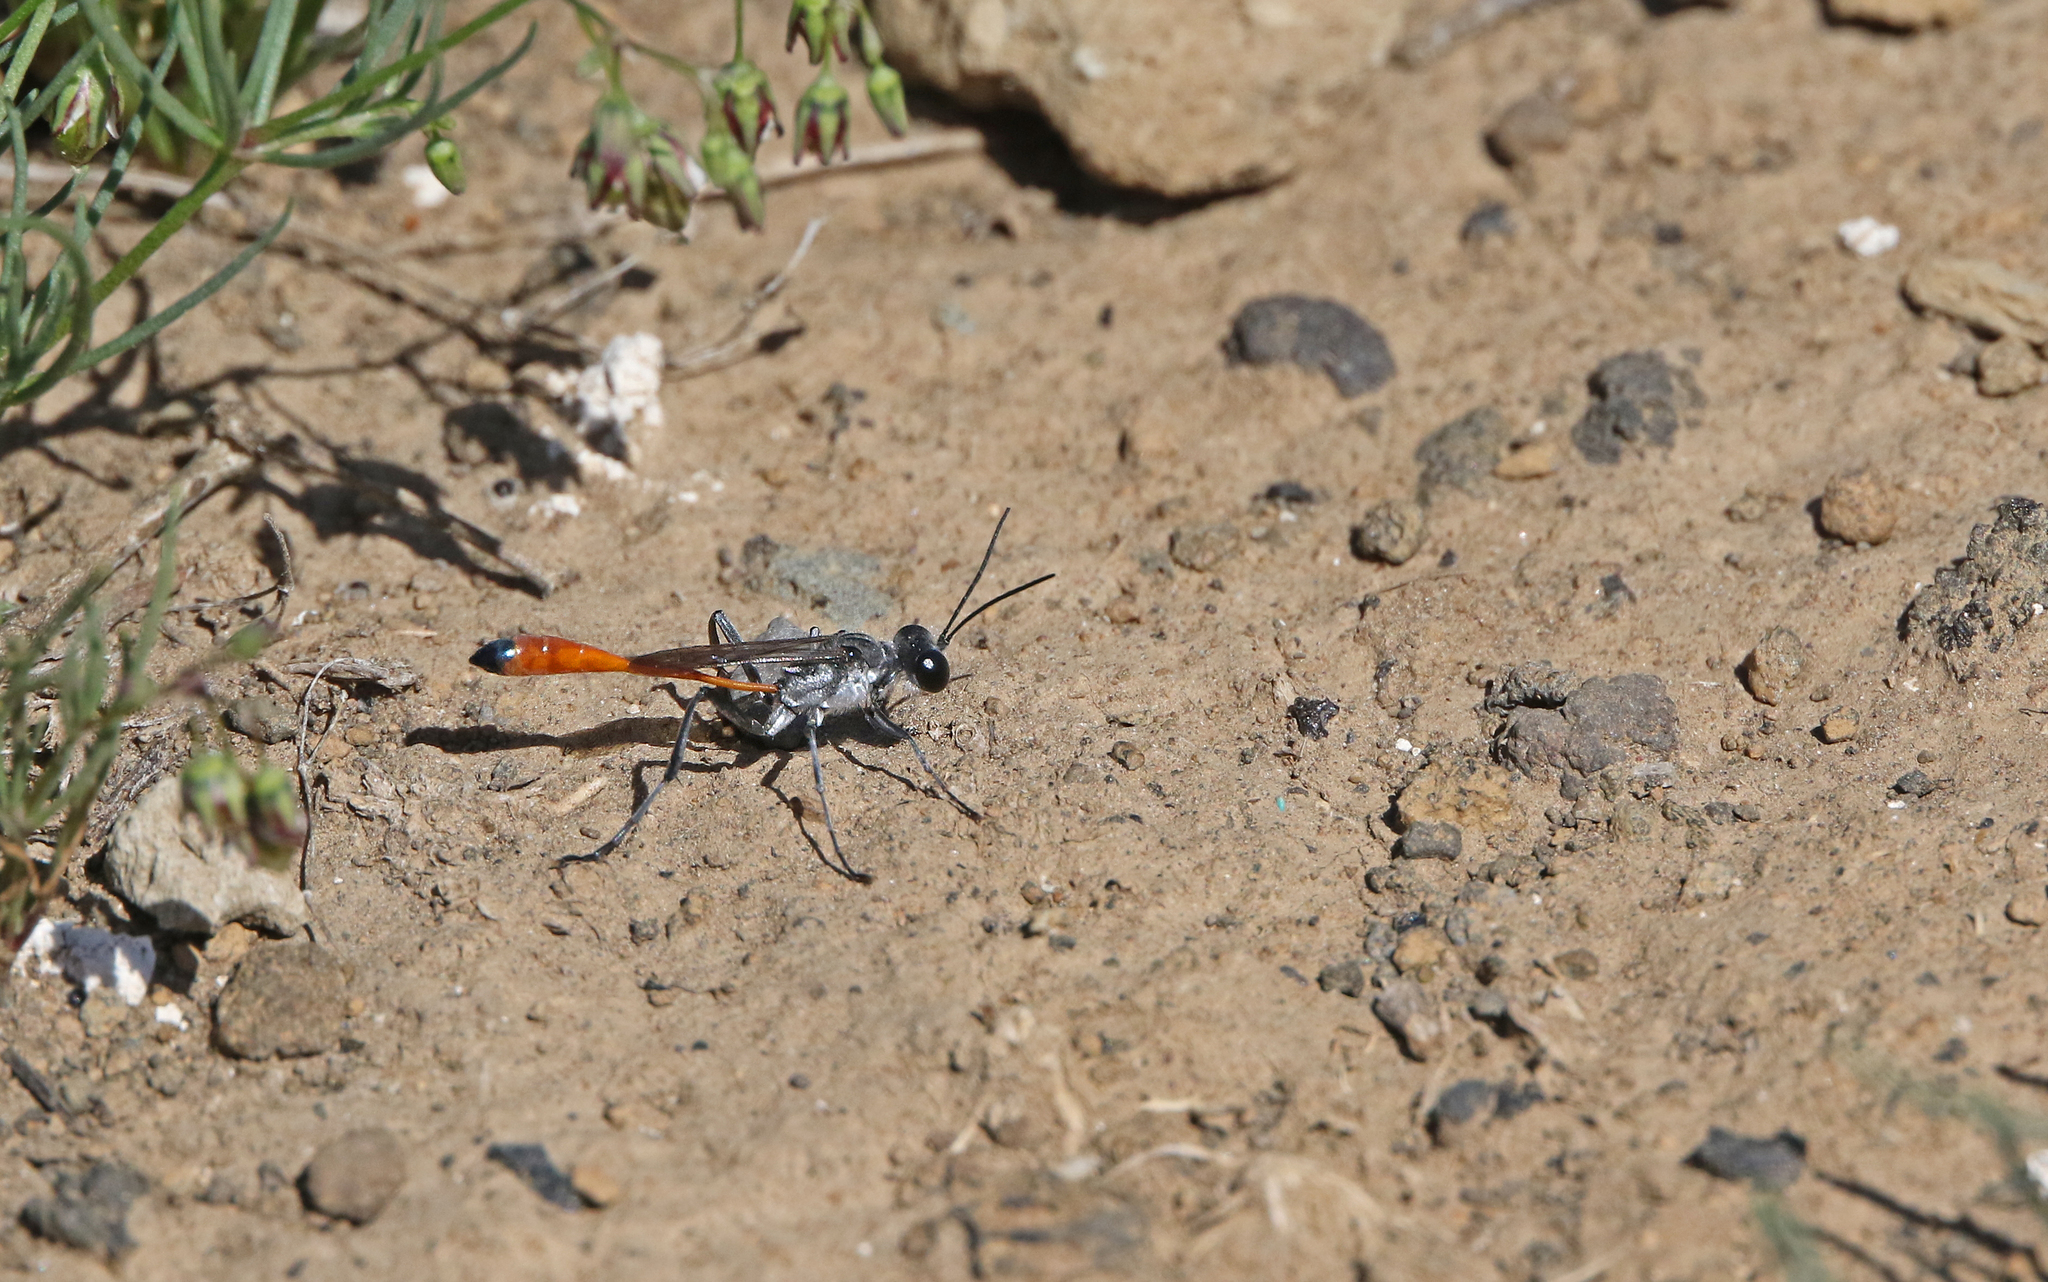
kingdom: Animalia
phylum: Arthropoda
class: Insecta
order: Hymenoptera
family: Sphecidae
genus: Ammophila
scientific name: Ammophila terminata
